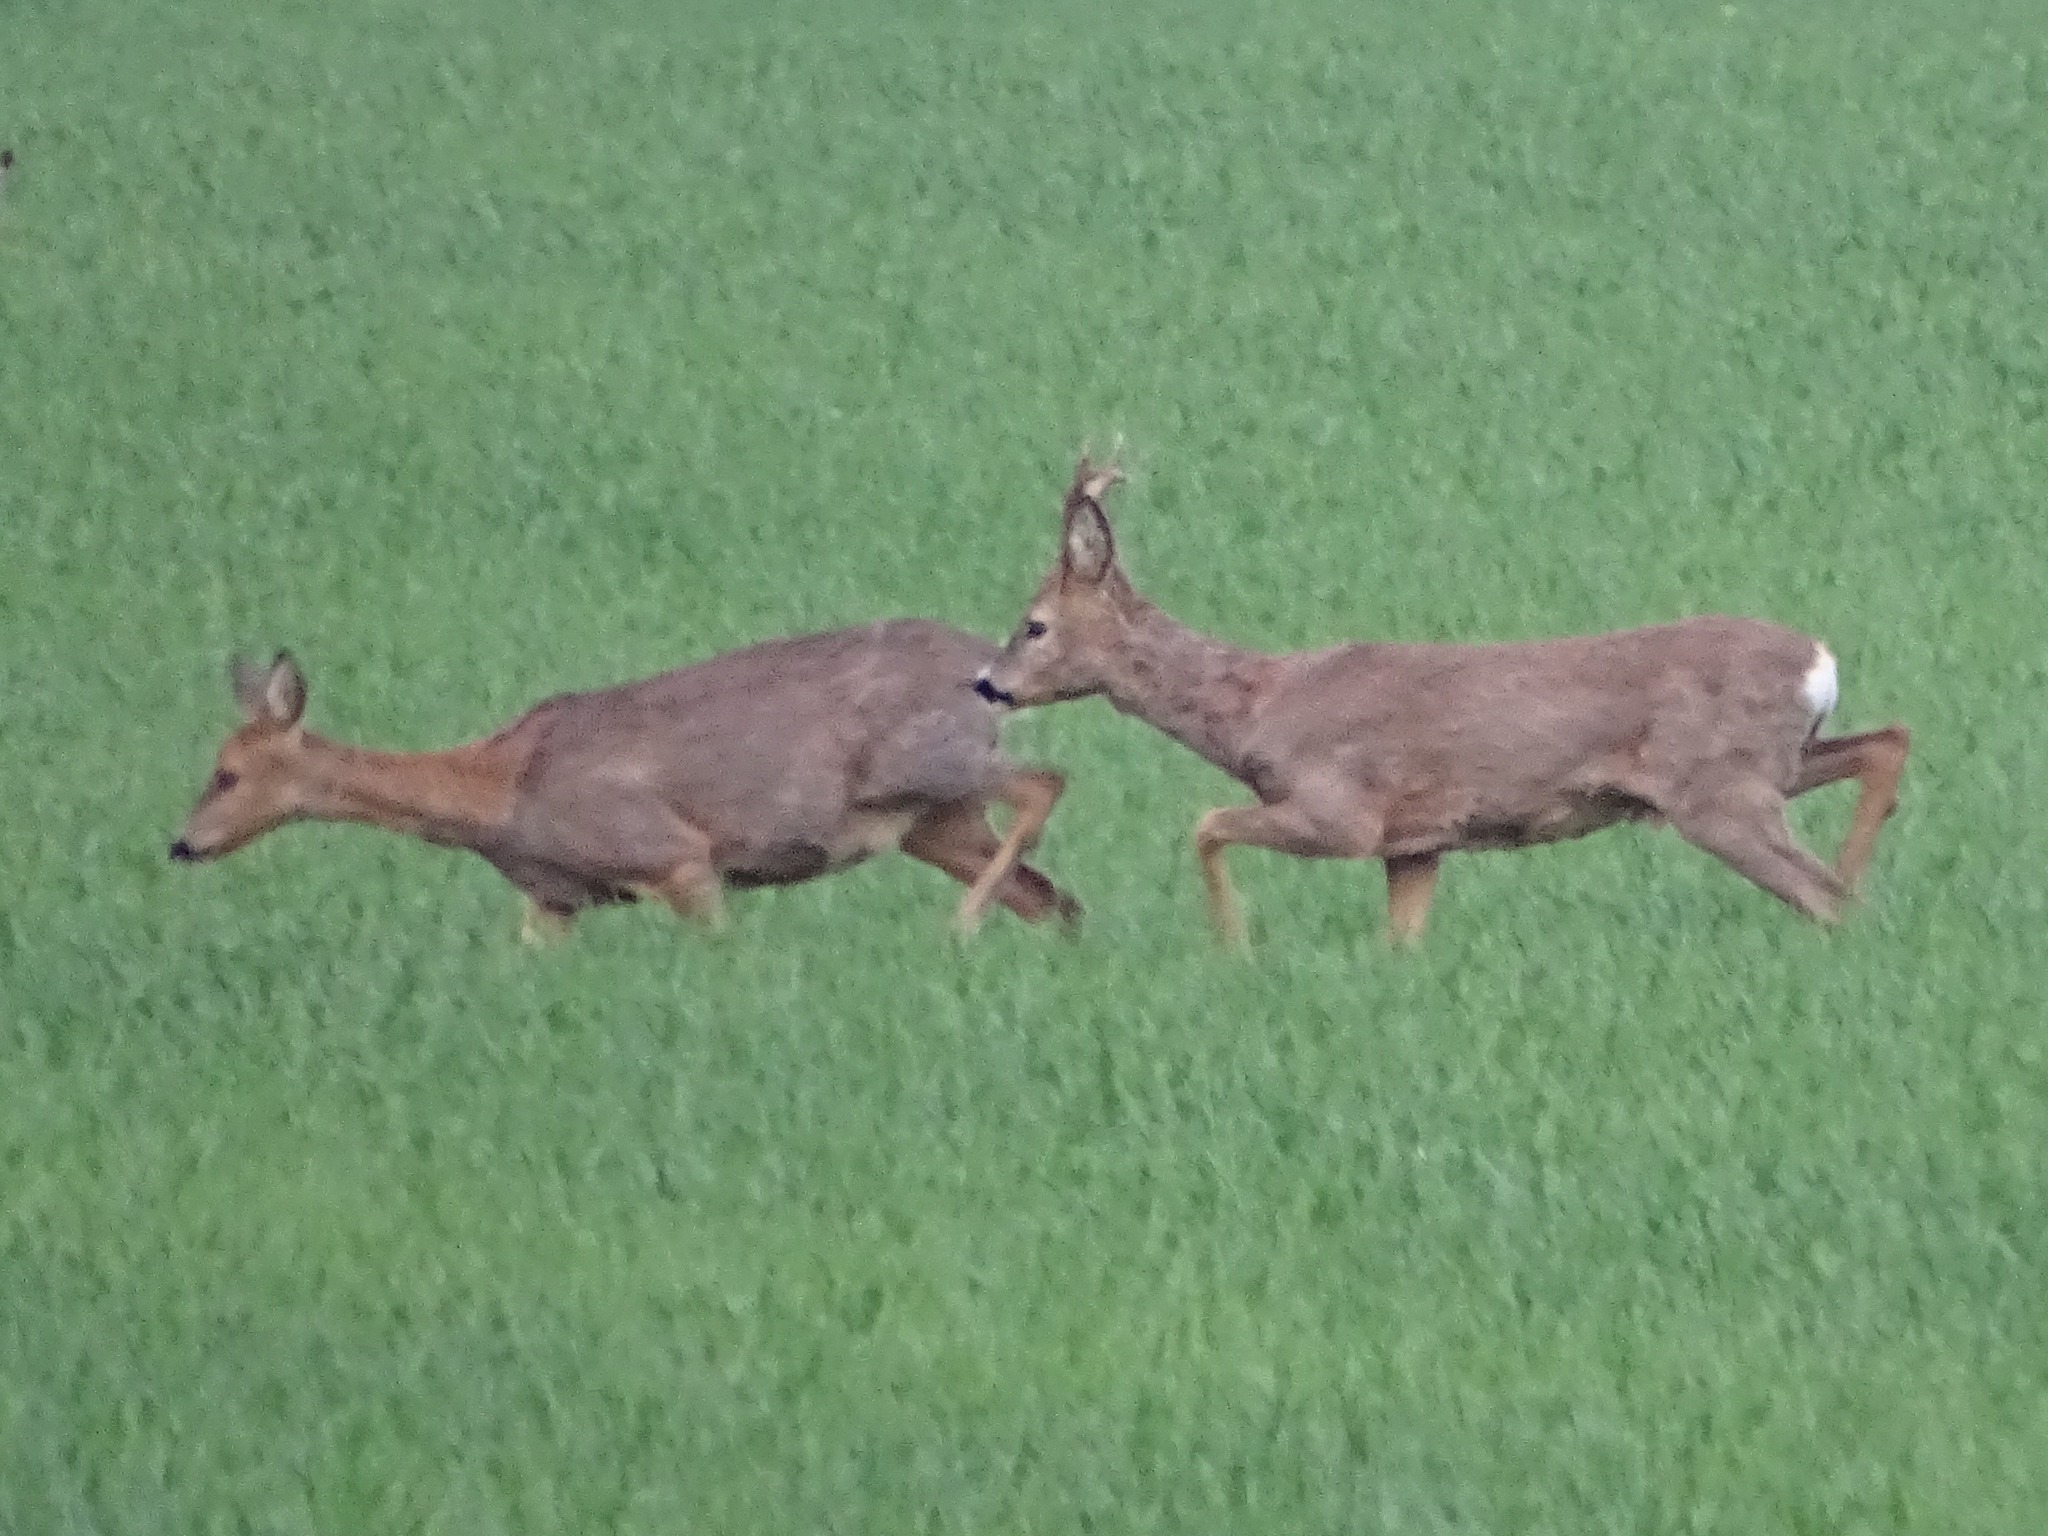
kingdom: Animalia
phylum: Chordata
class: Mammalia
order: Artiodactyla
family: Cervidae
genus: Capreolus
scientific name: Capreolus capreolus
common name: Western roe deer
